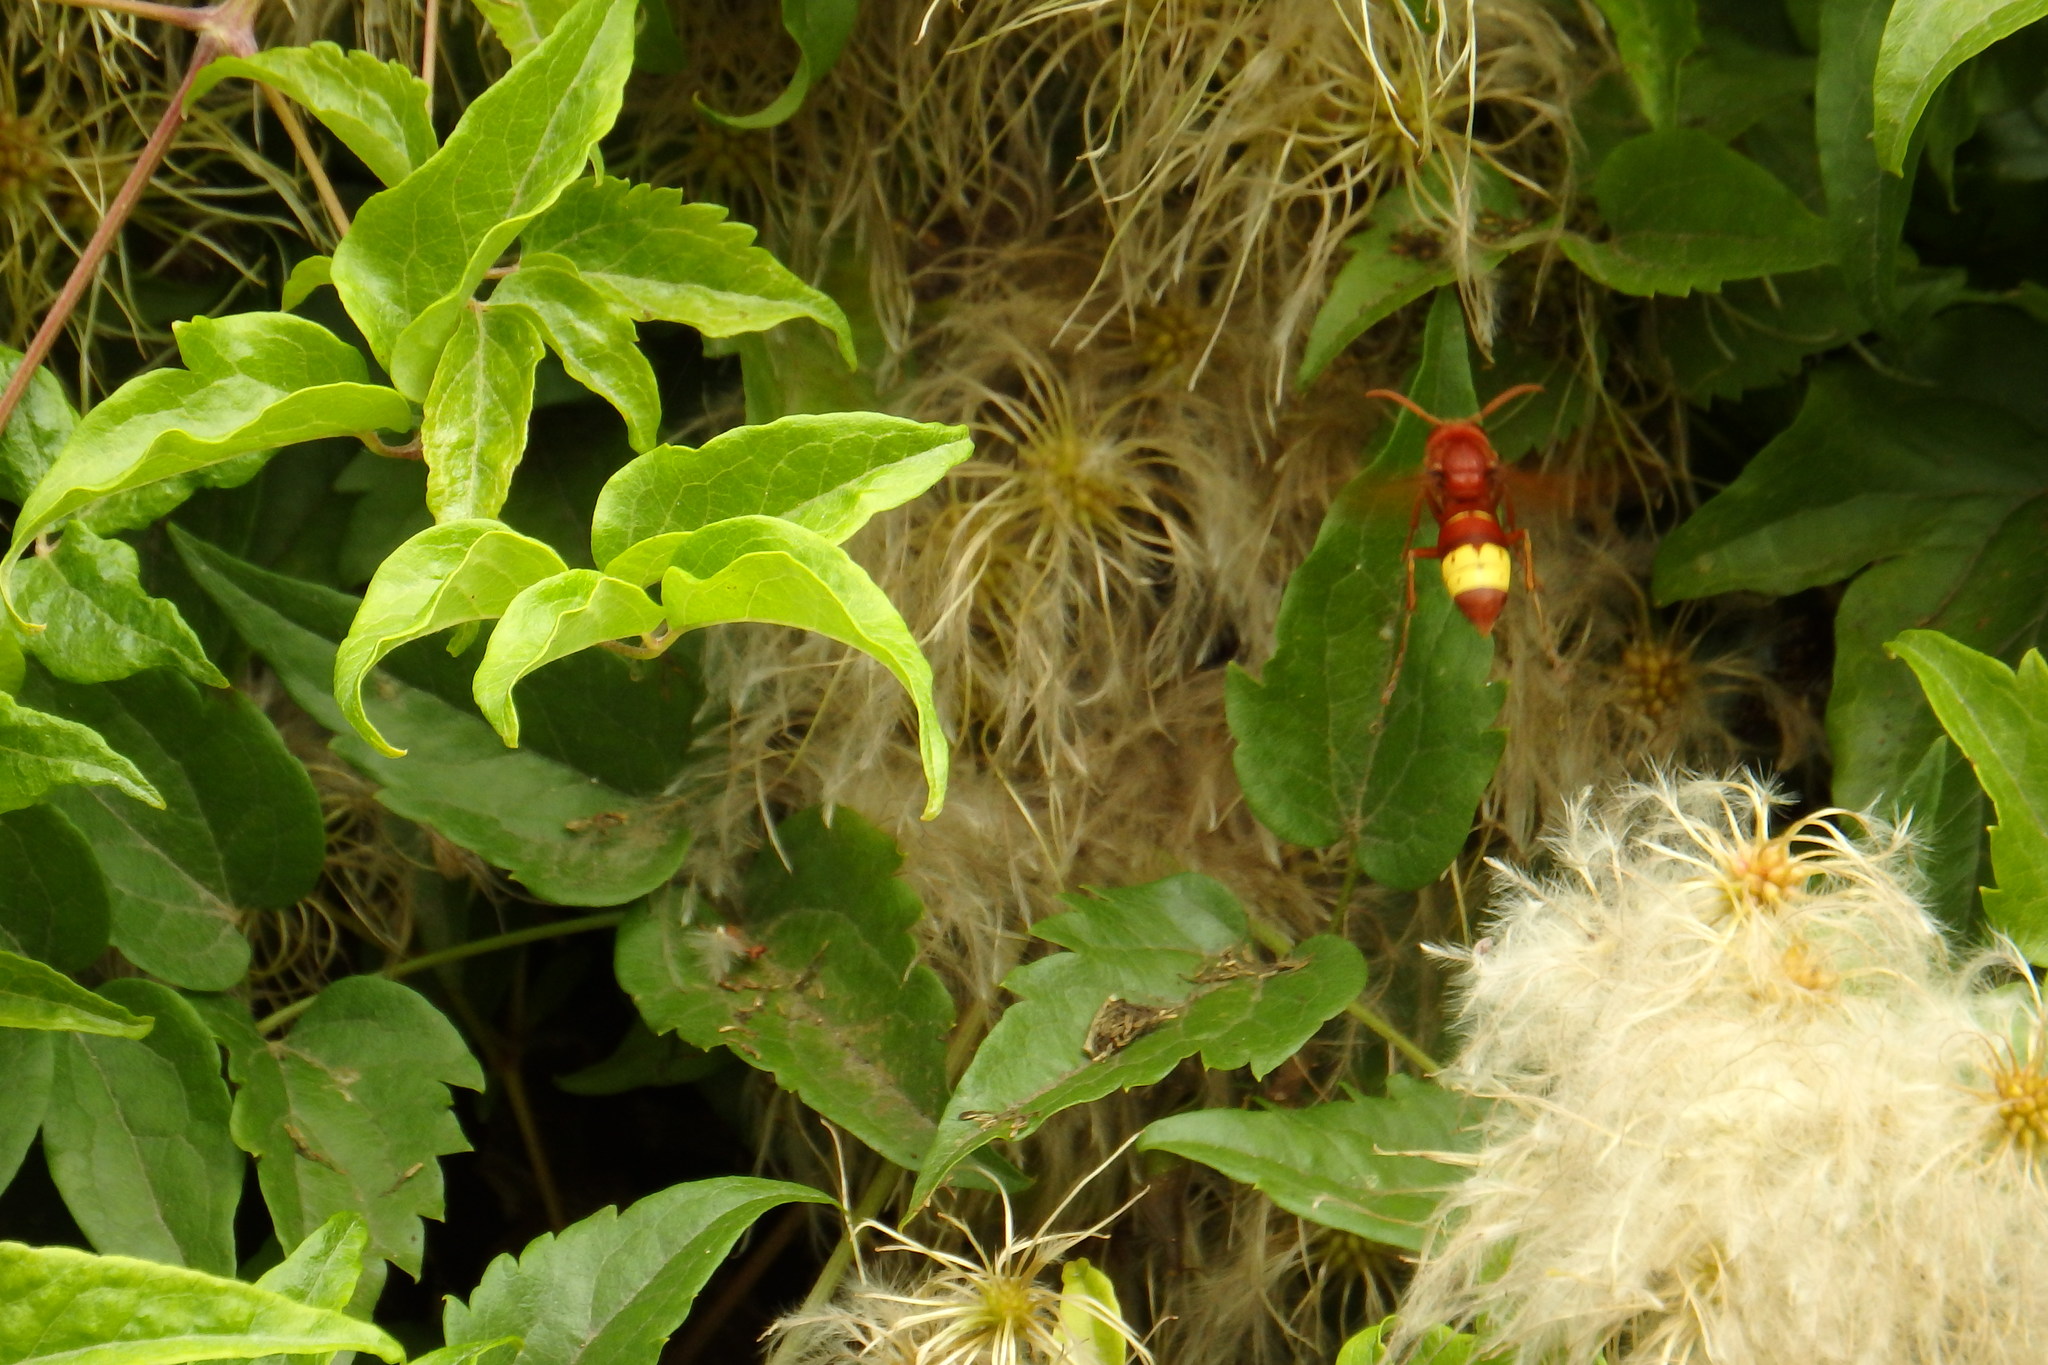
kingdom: Animalia
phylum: Arthropoda
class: Insecta
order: Hymenoptera
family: Vespidae
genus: Vespa
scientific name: Vespa orientalis
